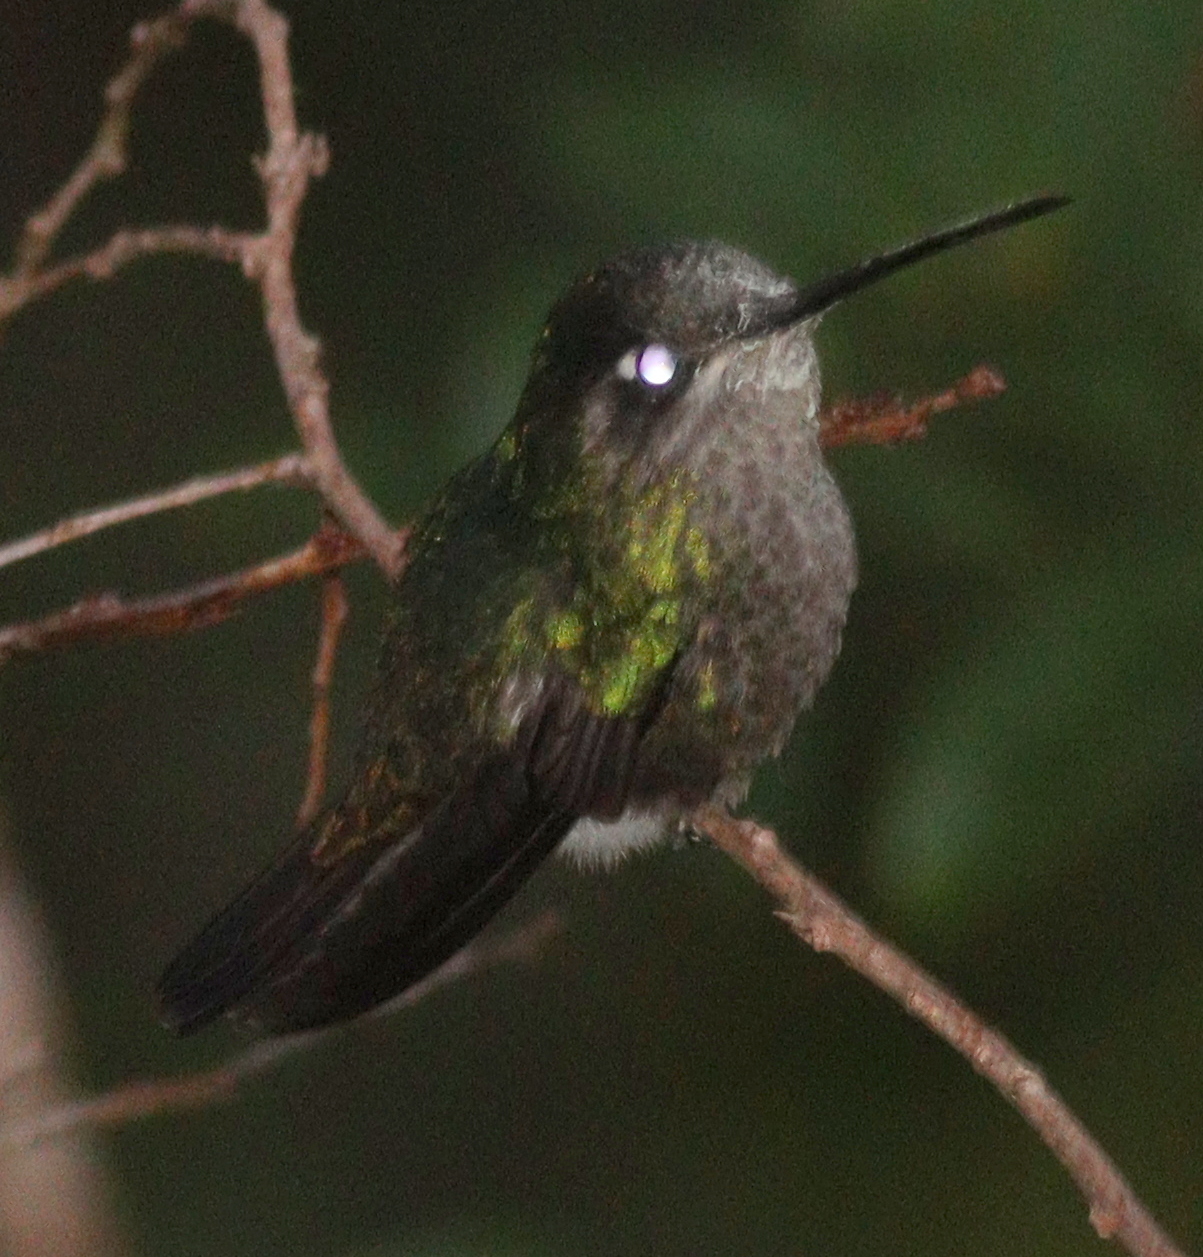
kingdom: Animalia
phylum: Chordata
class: Aves
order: Apodiformes
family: Trochilidae
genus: Eugenes
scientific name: Eugenes spectabilis
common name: Talamanca hummingbird
